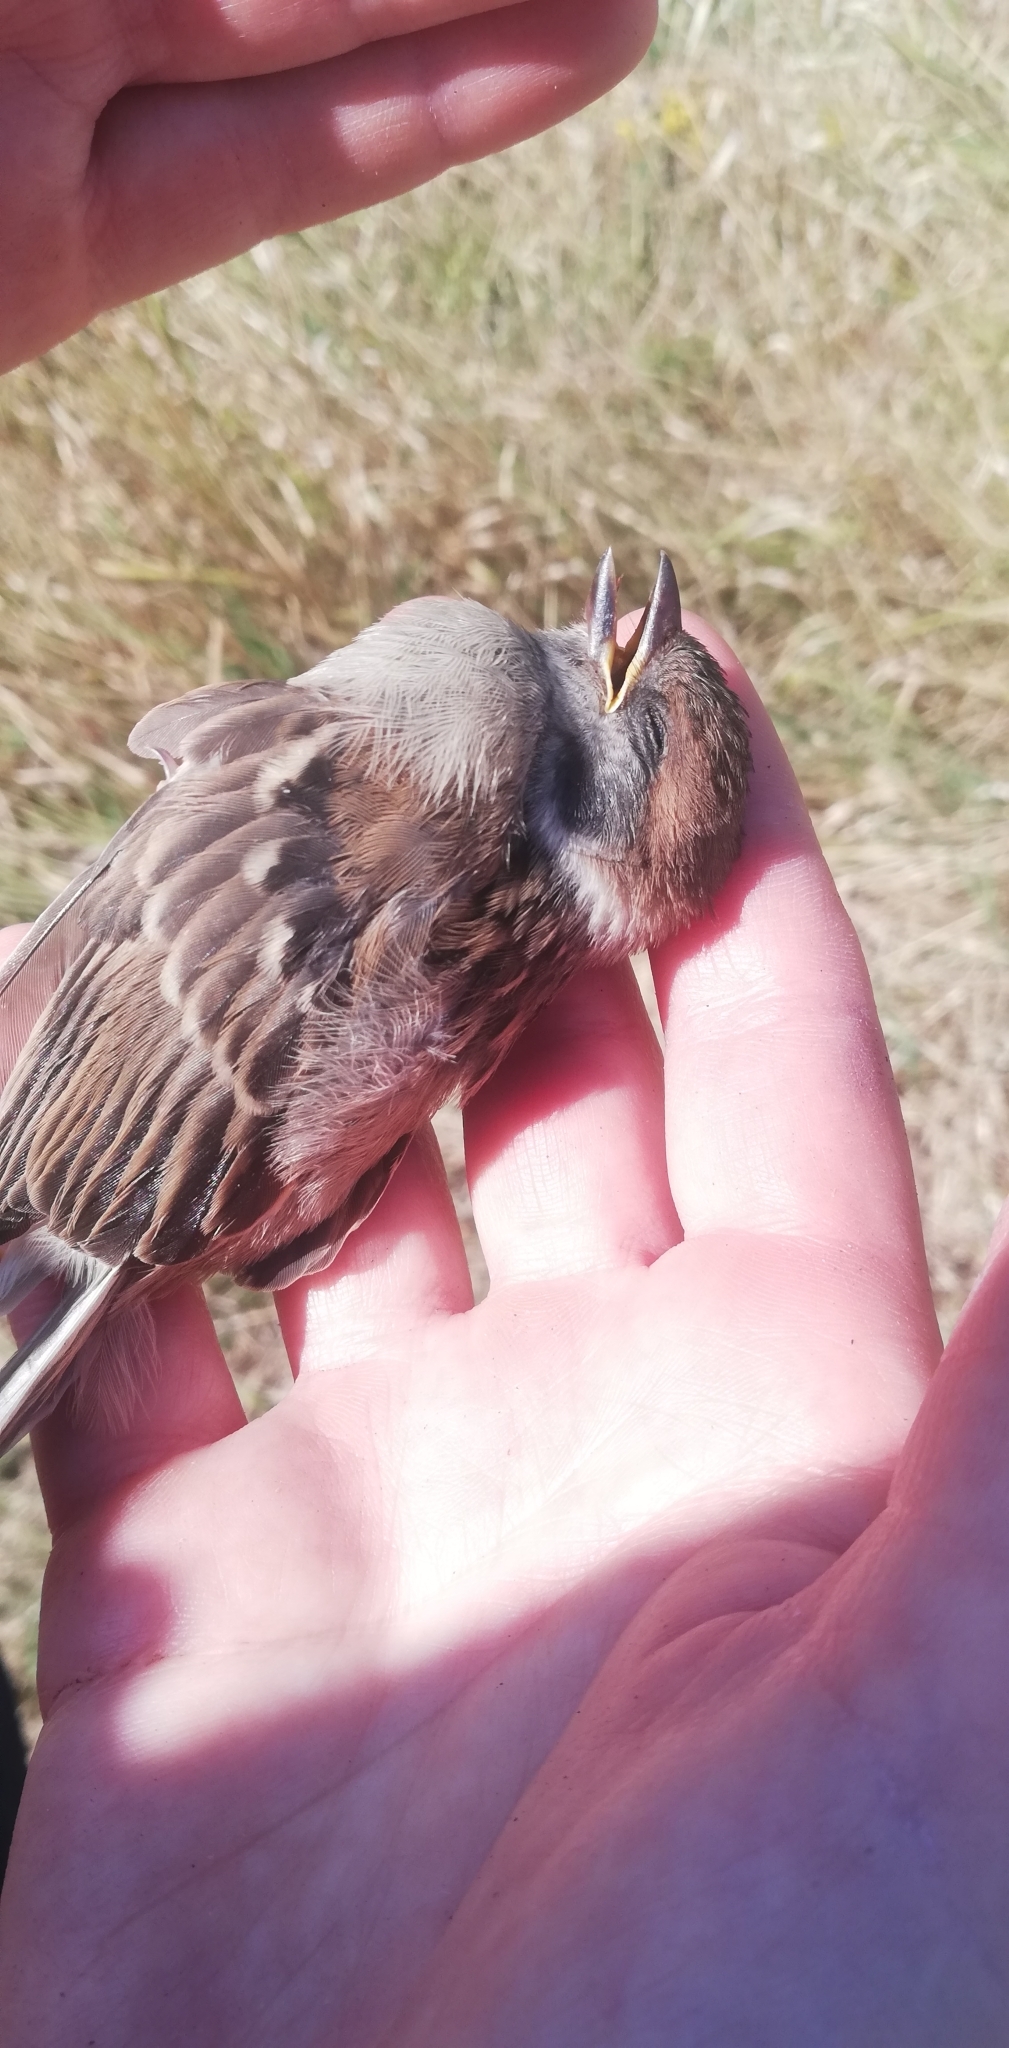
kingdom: Animalia
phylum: Chordata
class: Aves
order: Passeriformes
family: Passeridae
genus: Passer
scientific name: Passer montanus
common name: Eurasian tree sparrow
